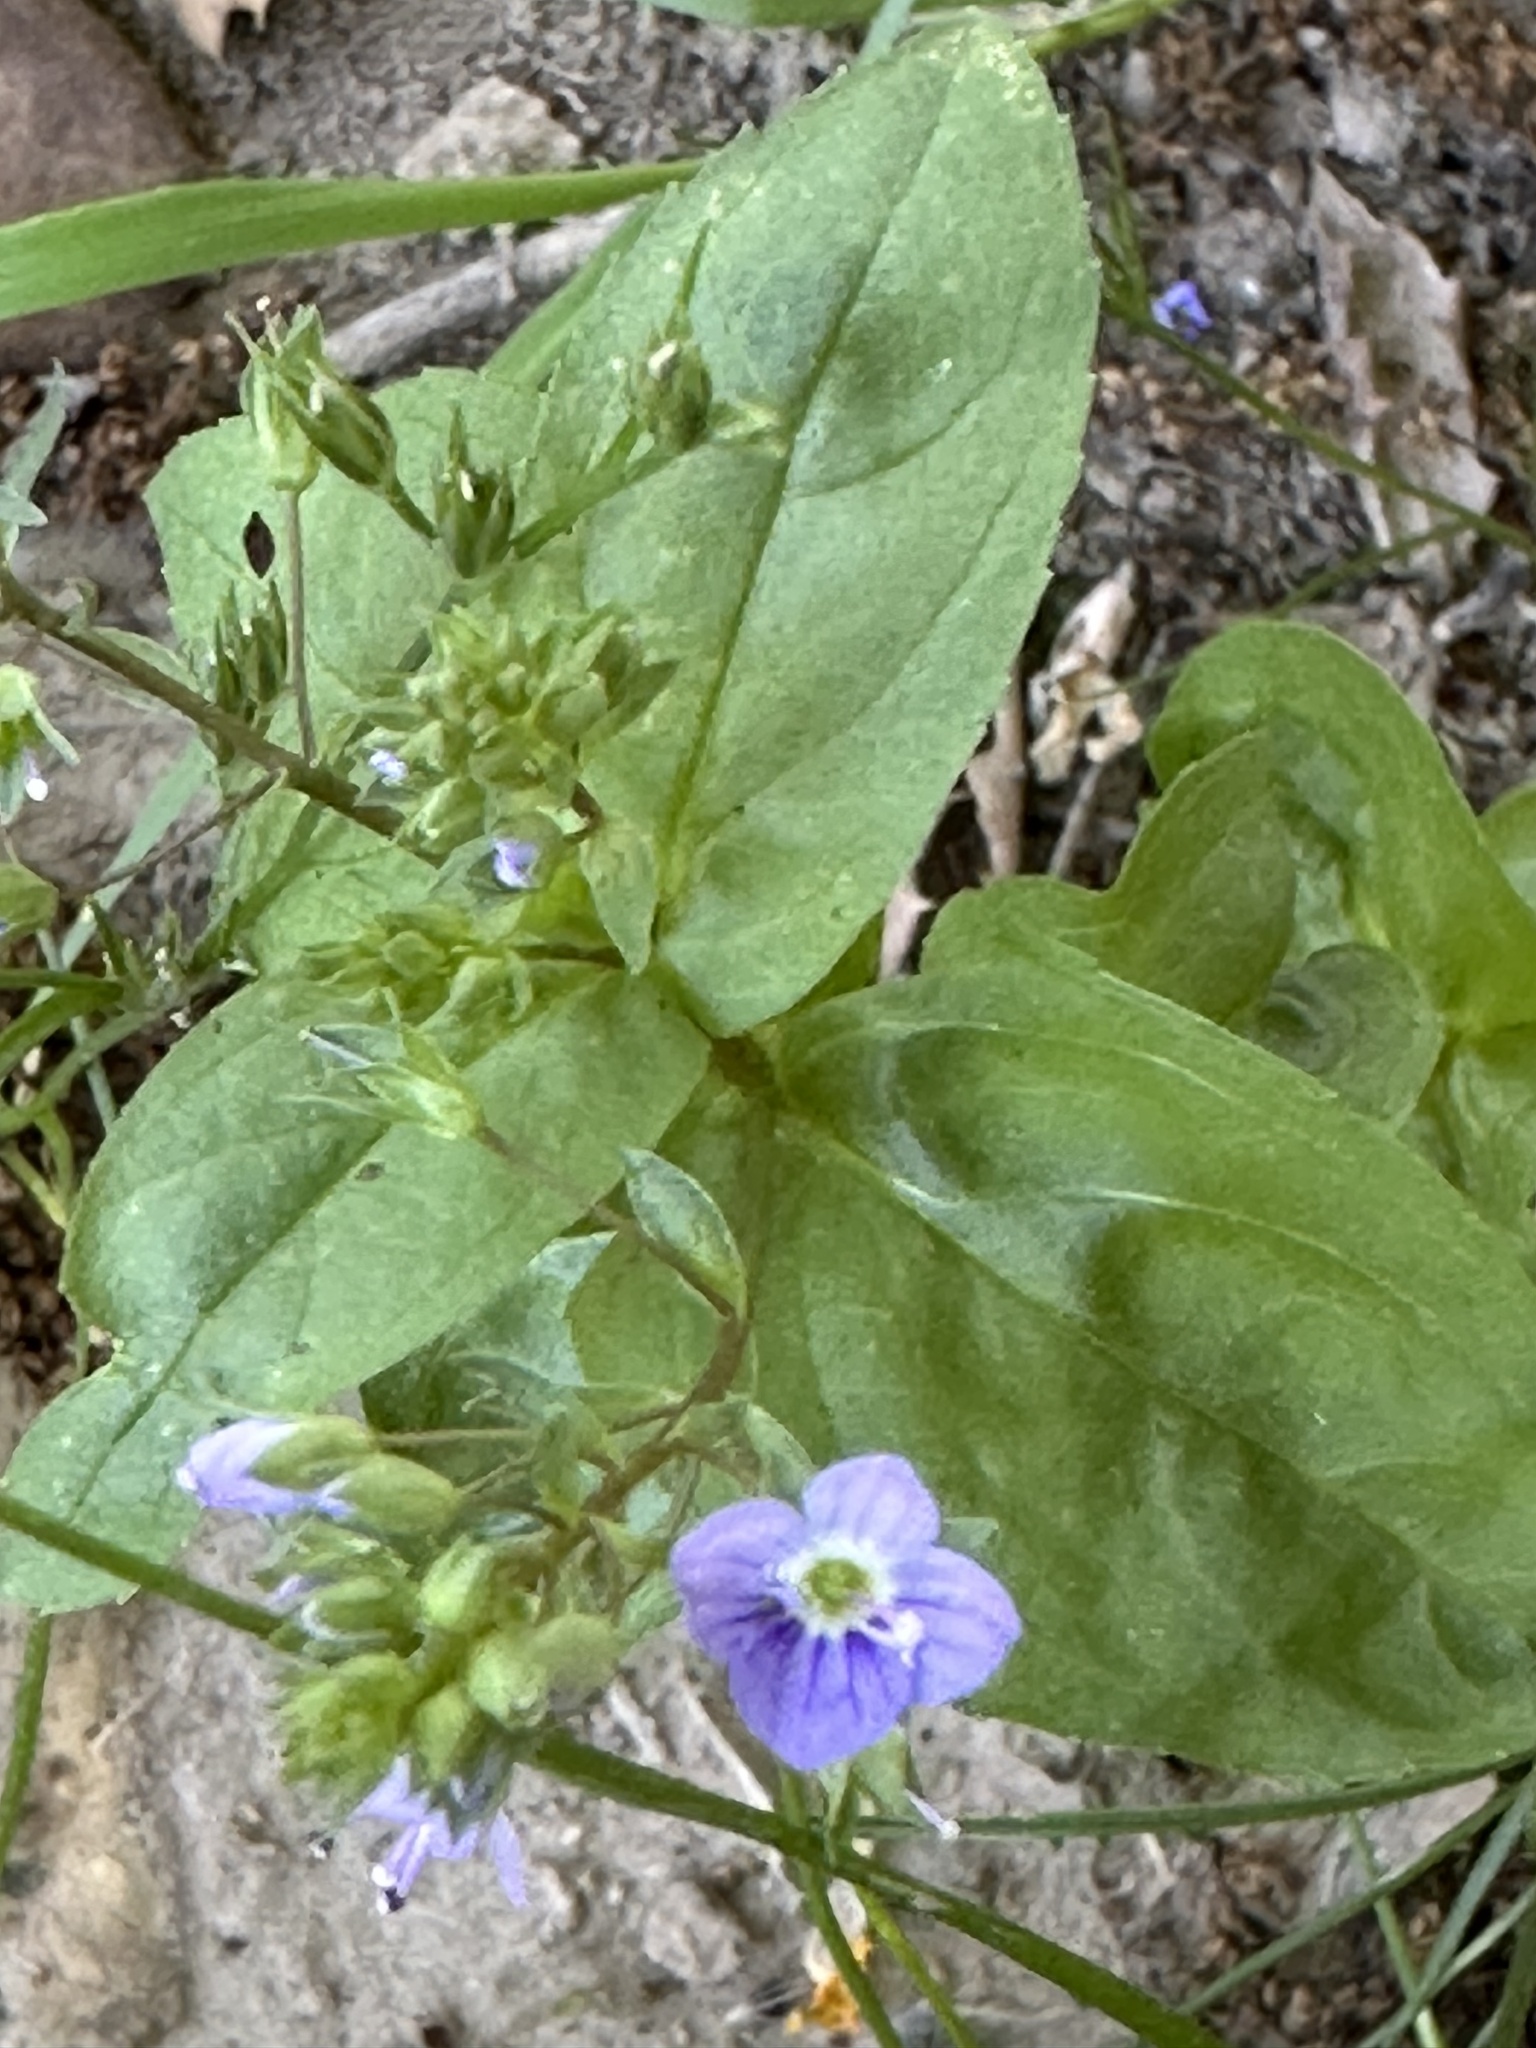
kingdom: Plantae
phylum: Tracheophyta
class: Magnoliopsida
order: Lamiales
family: Plantaginaceae
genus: Veronica
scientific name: Veronica anagallis-aquatica
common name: Water speedwell
